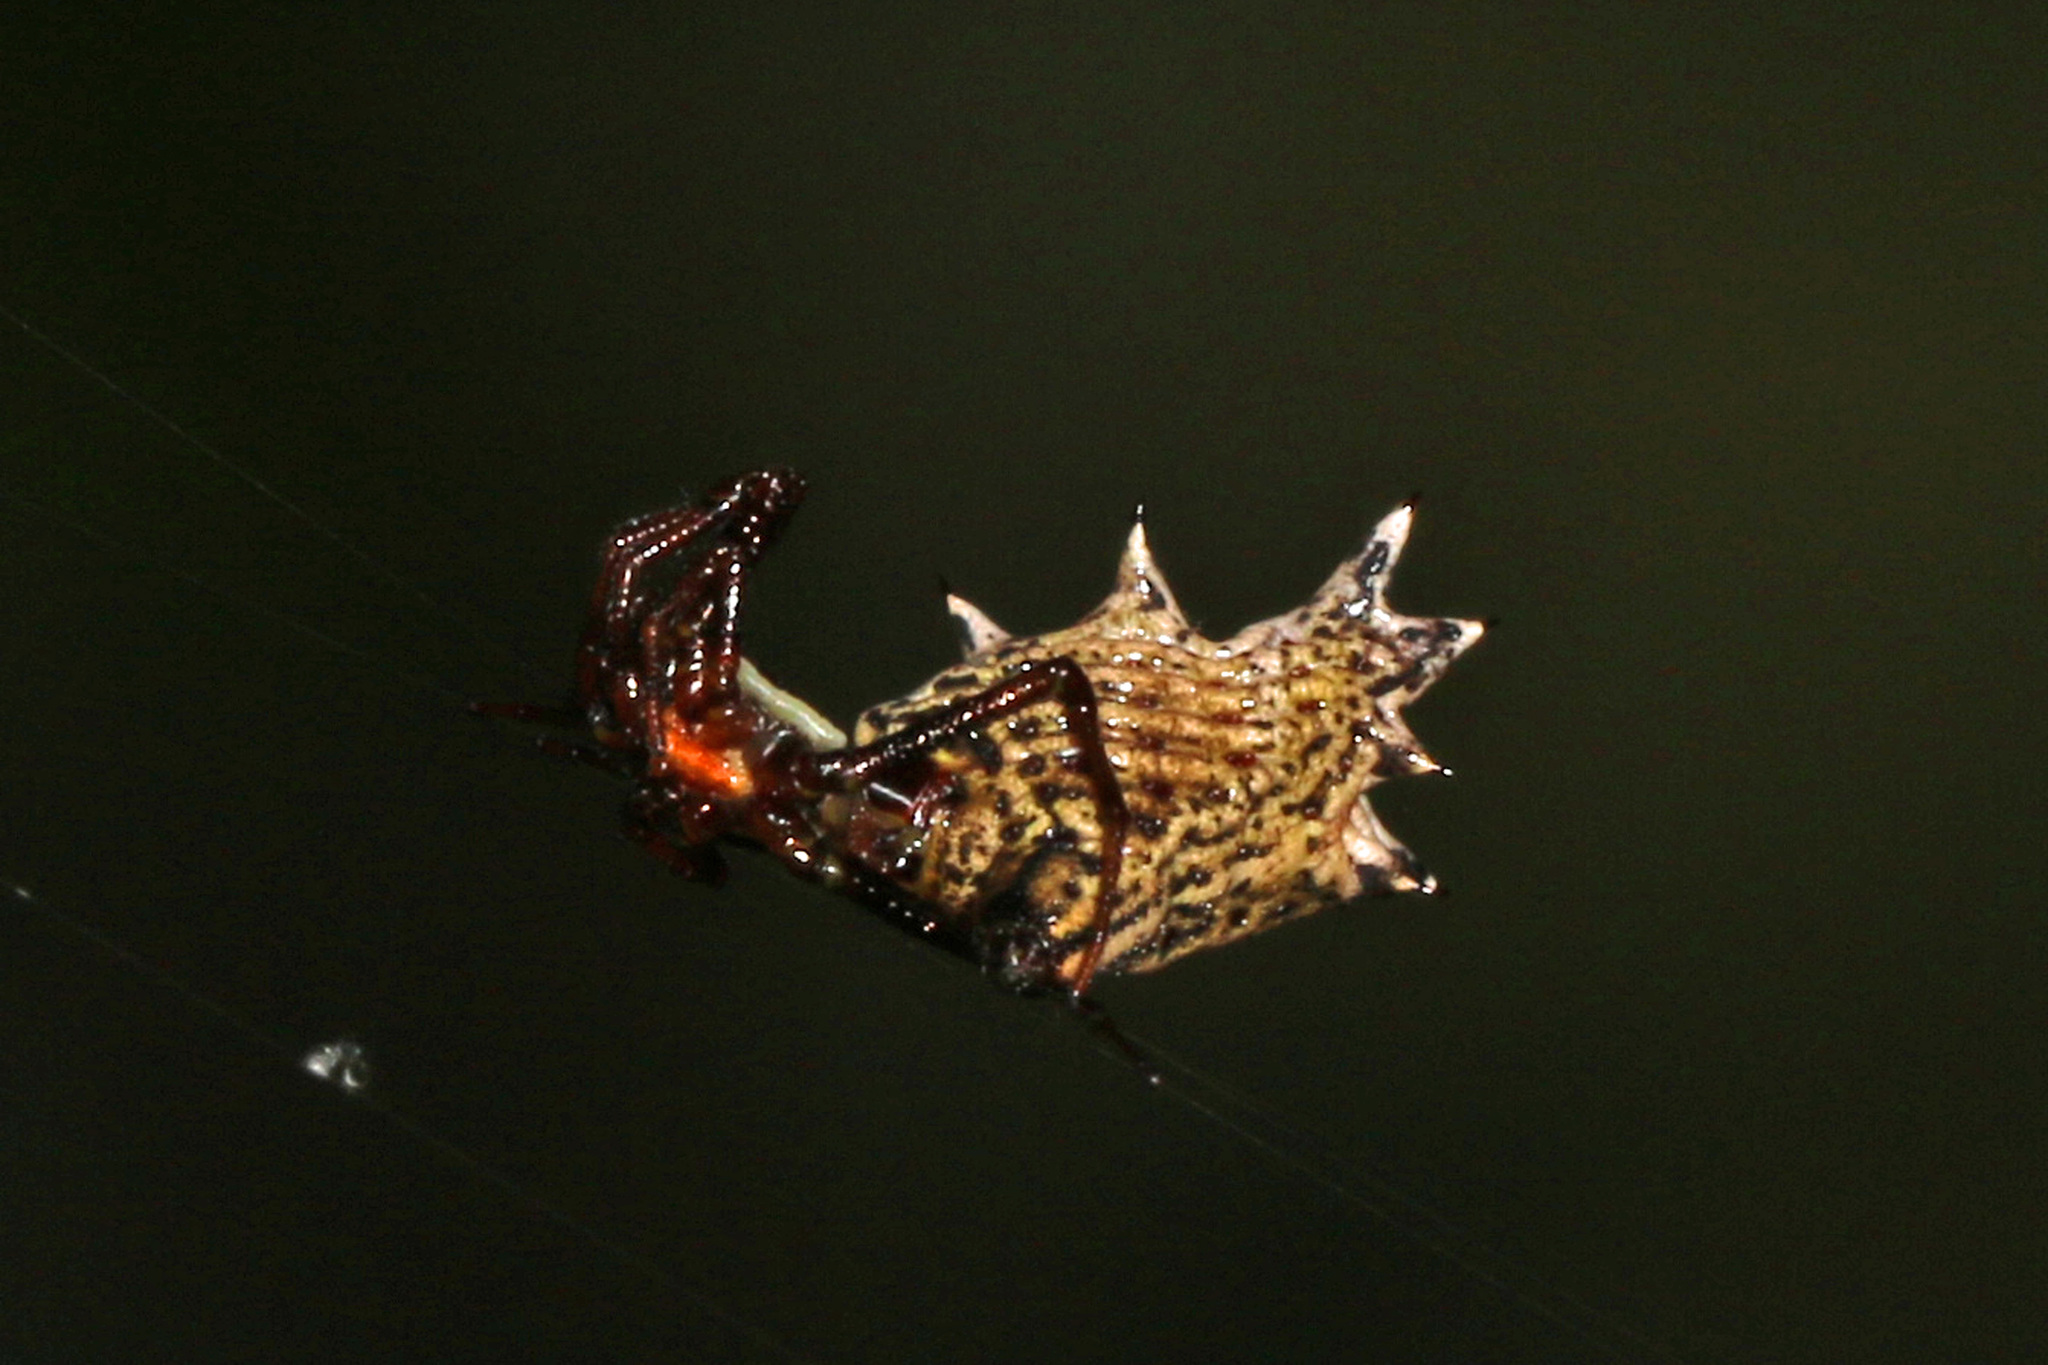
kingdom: Animalia
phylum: Arthropoda
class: Arachnida
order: Araneae
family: Araneidae
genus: Micrathena
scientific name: Micrathena gracilis
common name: Orb weavers
